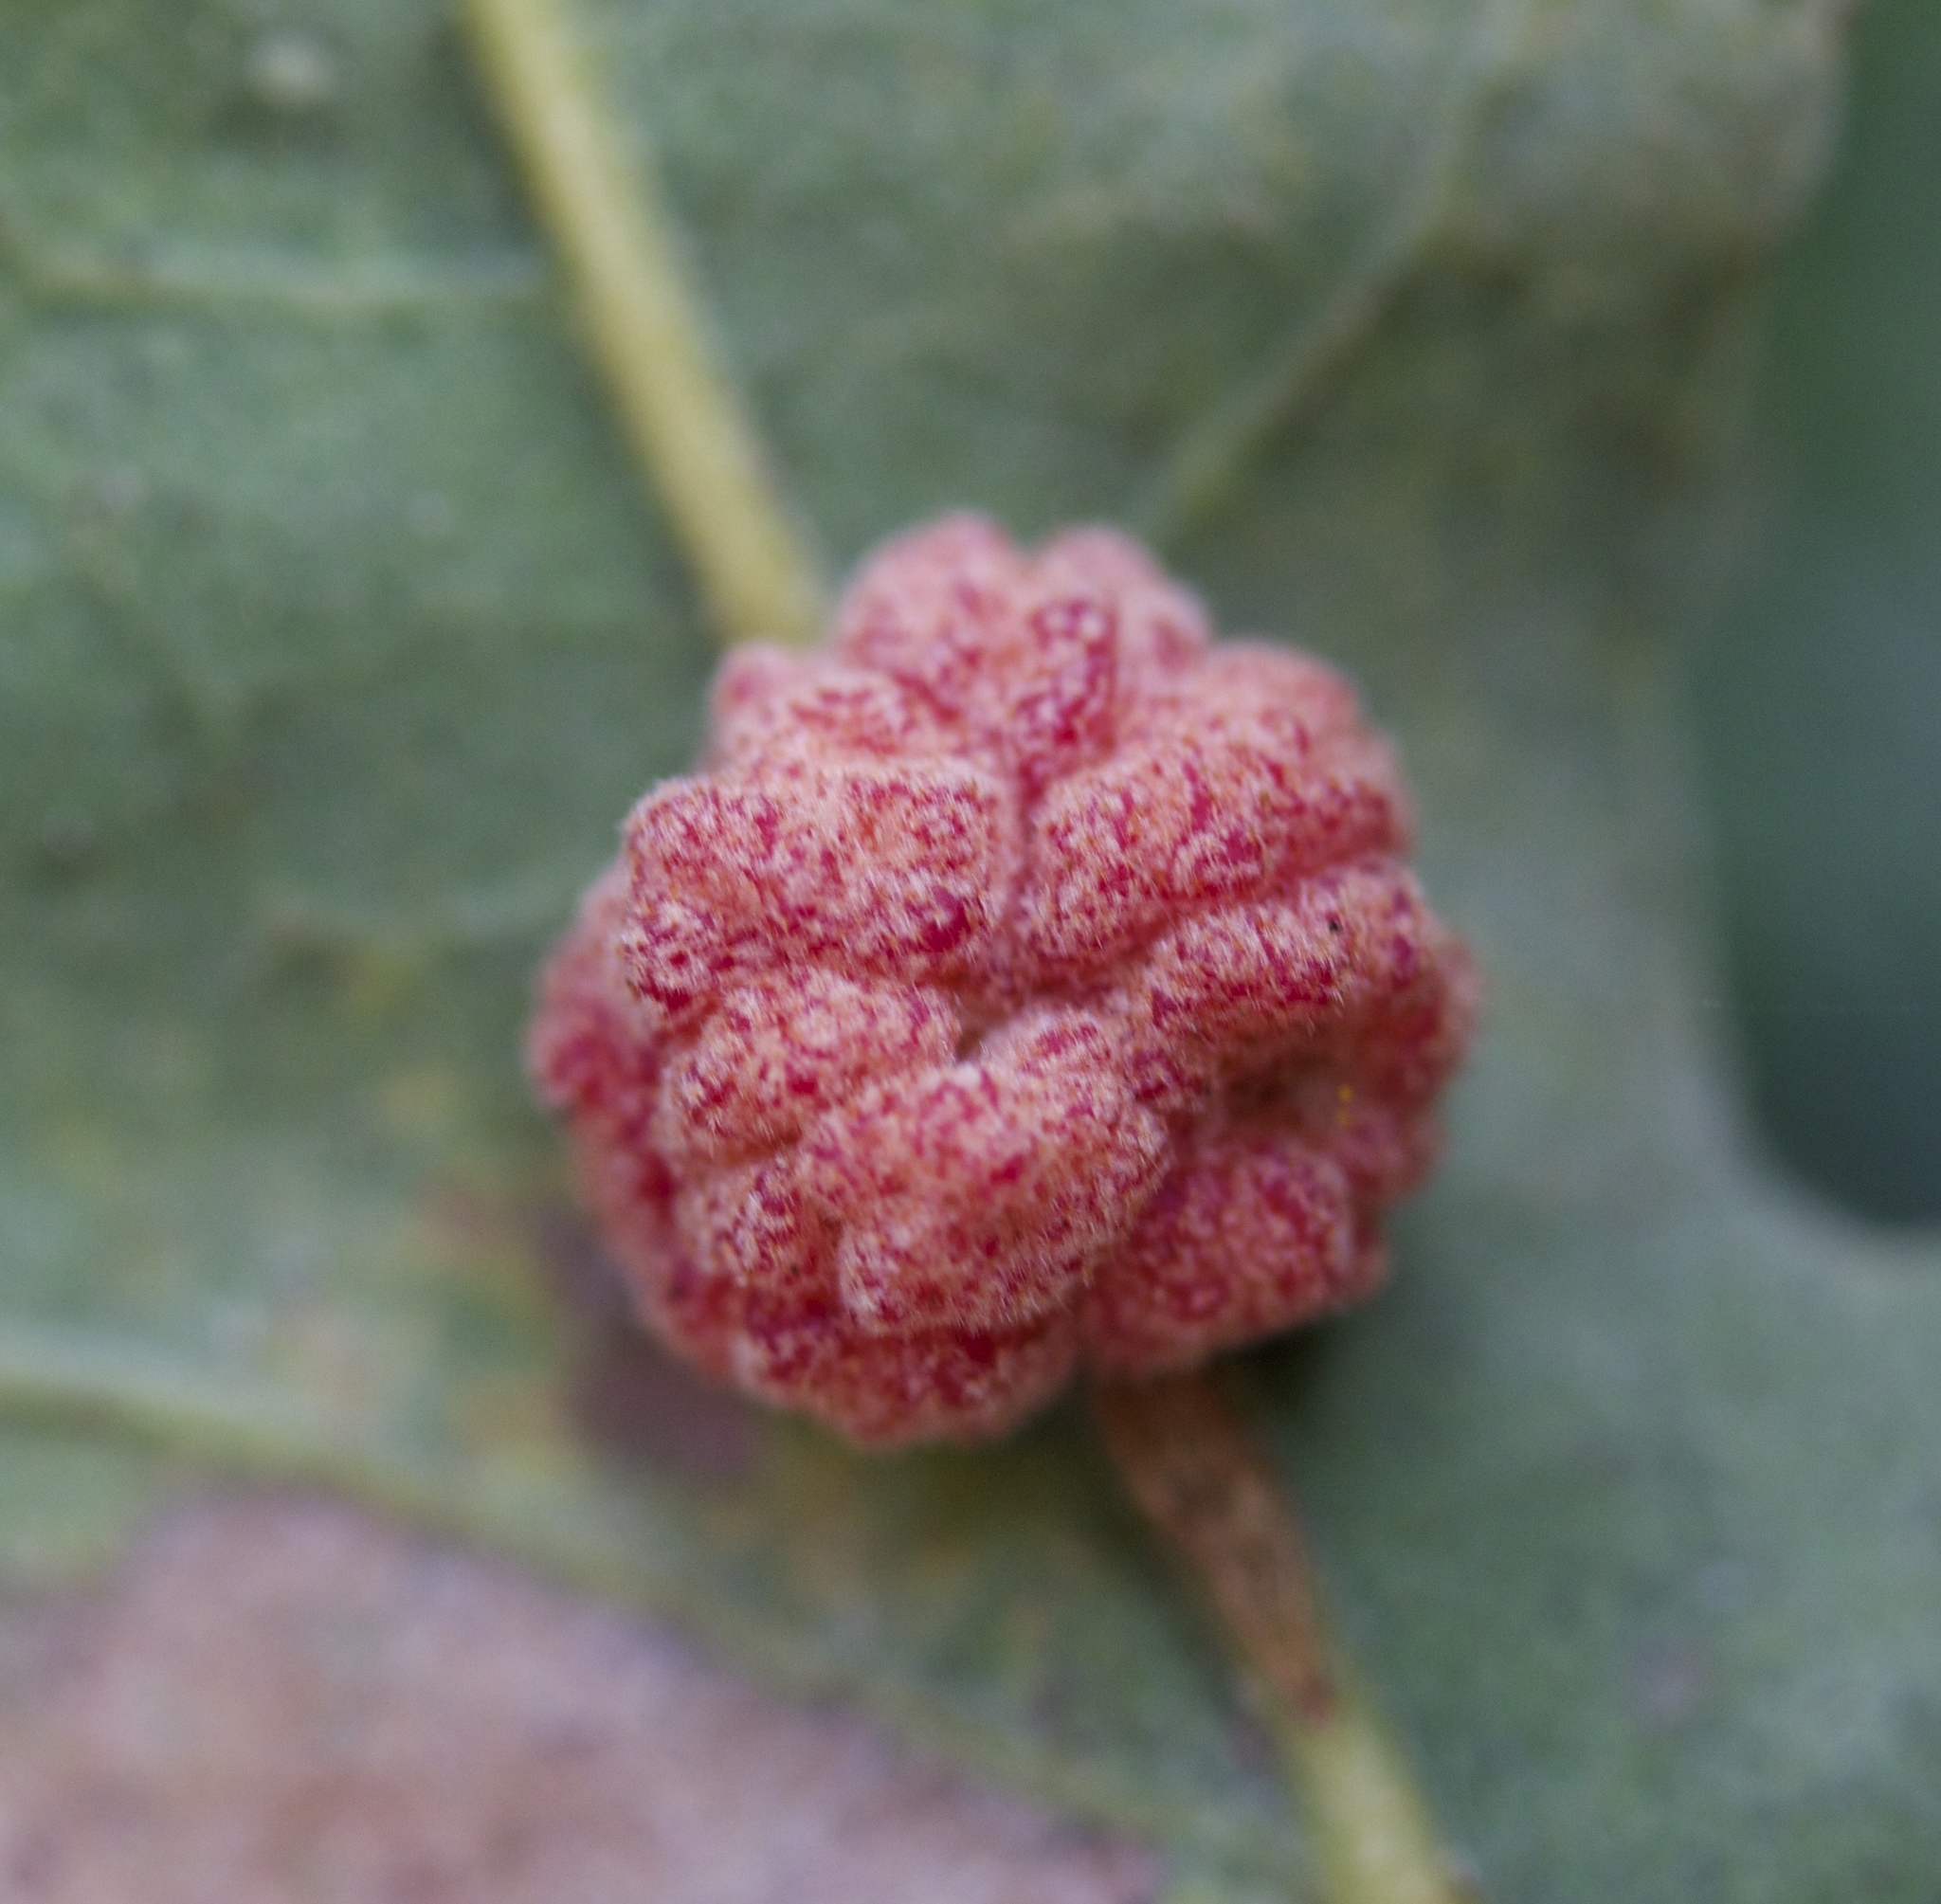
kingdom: Animalia
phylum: Arthropoda
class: Insecta
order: Hymenoptera
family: Cynipidae
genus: Andricus
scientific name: Andricus
